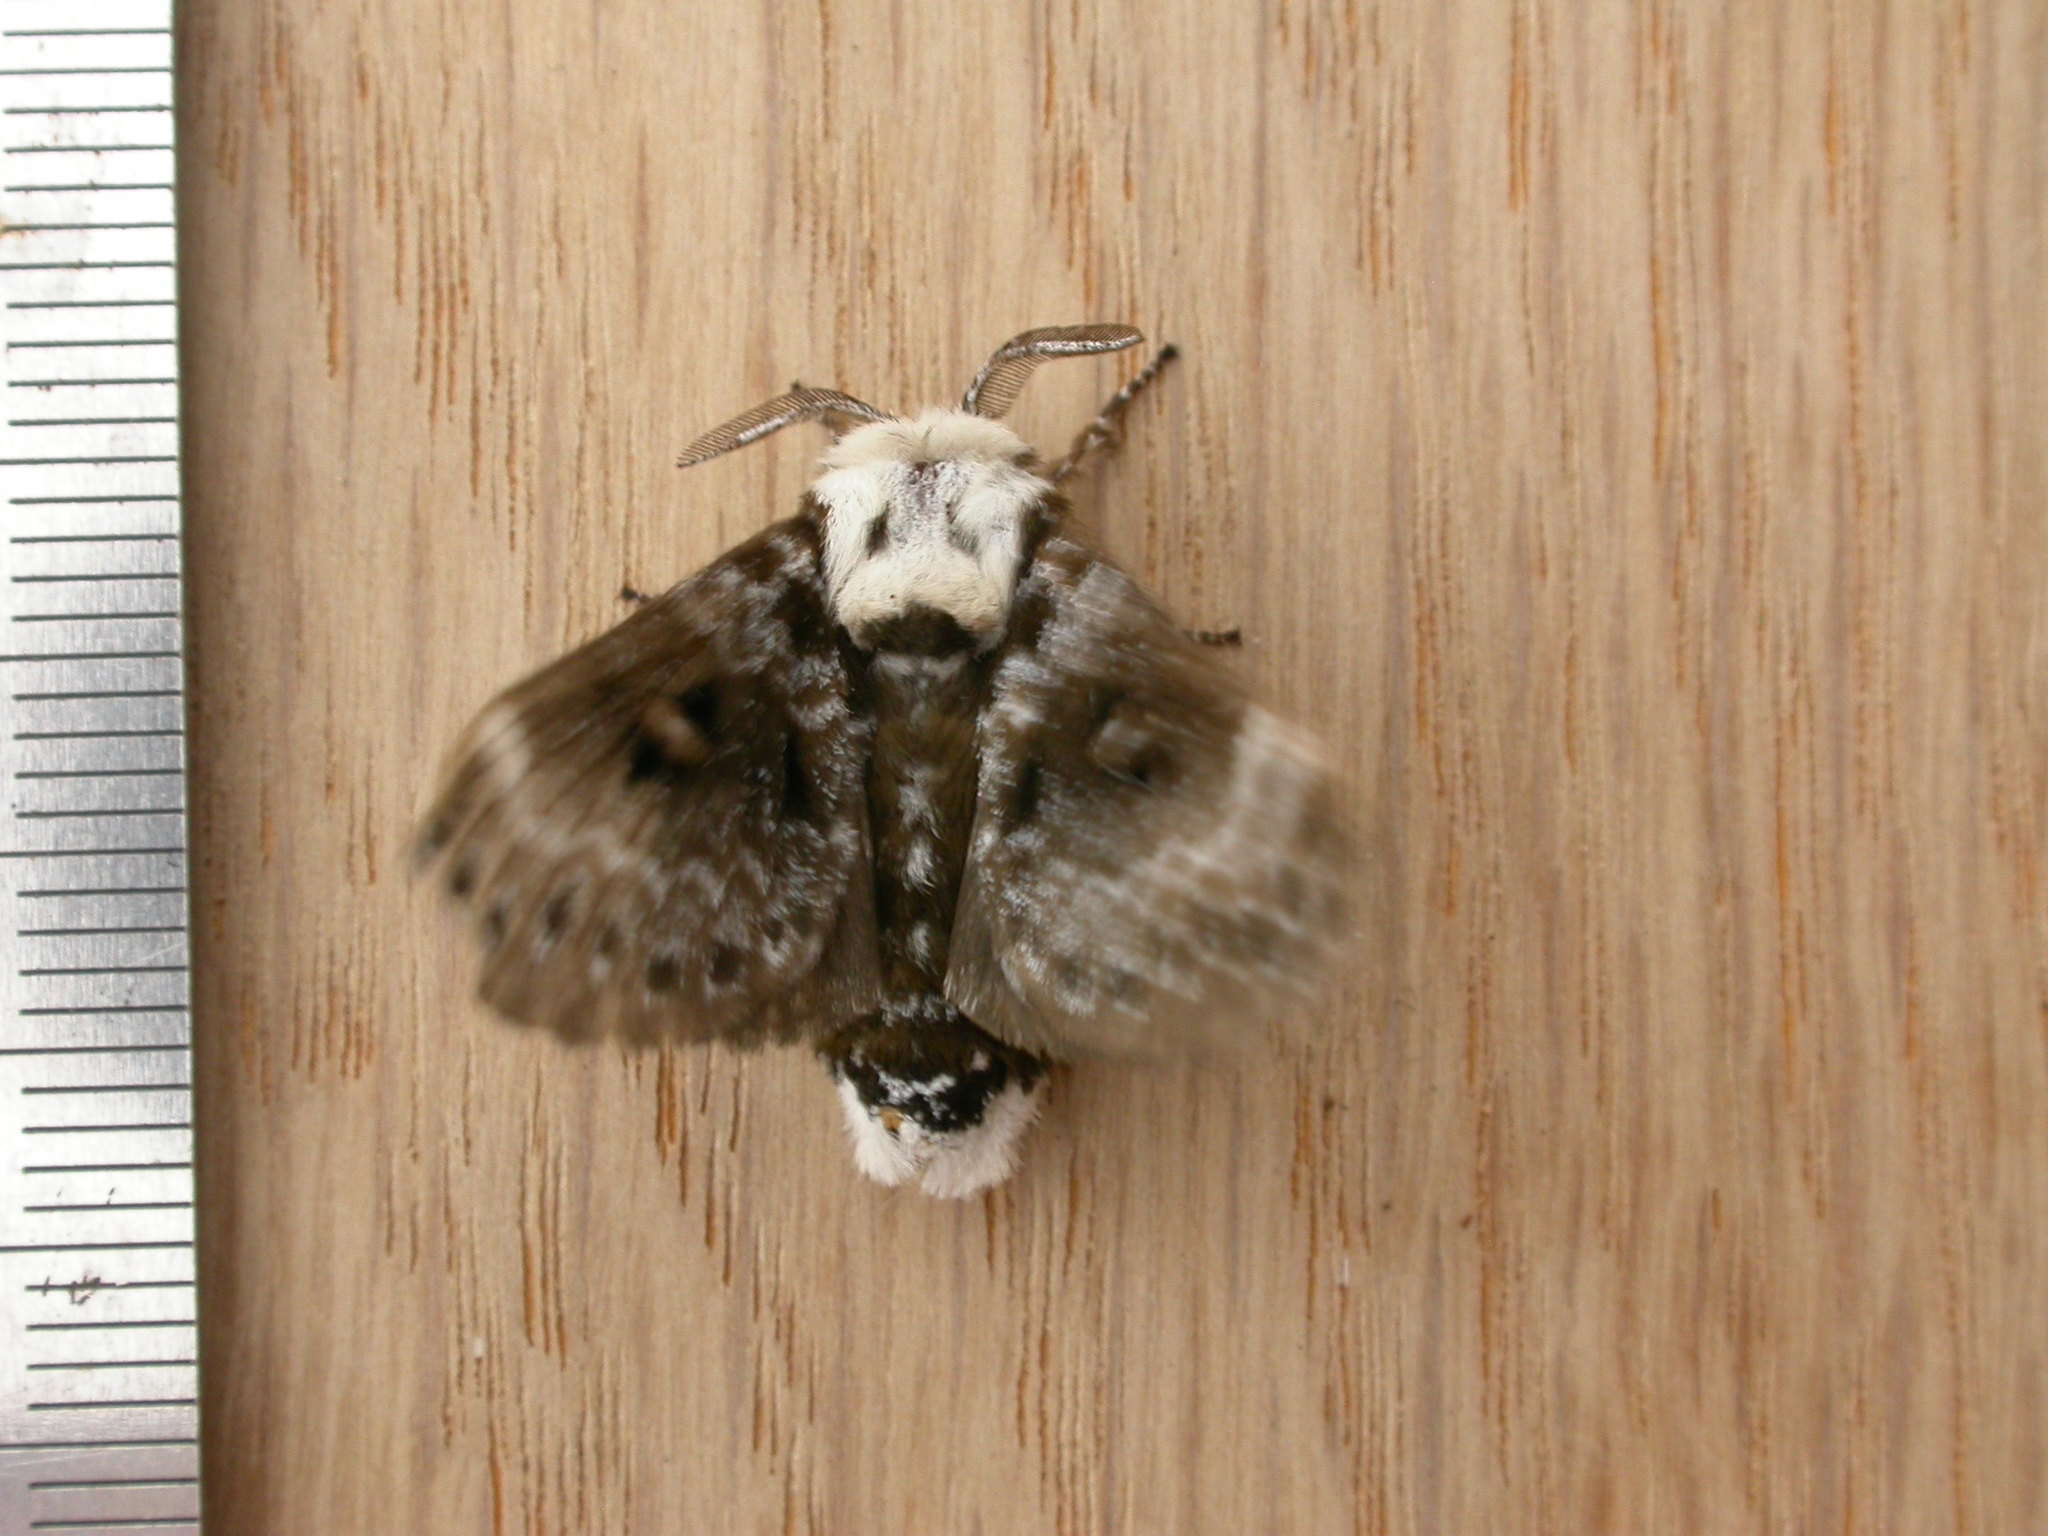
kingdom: Animalia
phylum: Arthropoda
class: Insecta
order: Lepidoptera
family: Lasiocampidae
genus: Genduara
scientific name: Genduara punctigera
